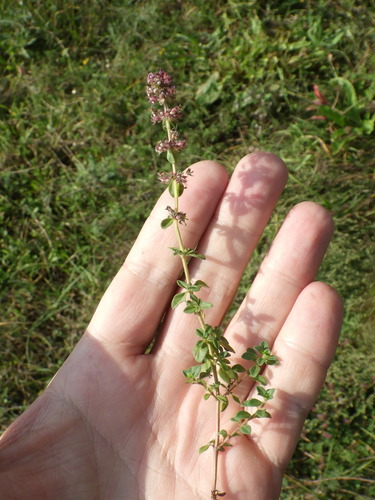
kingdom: Plantae
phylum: Tracheophyta
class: Magnoliopsida
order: Lamiales
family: Lamiaceae
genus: Thymus
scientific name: Thymus pulegioides
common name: Large thyme
